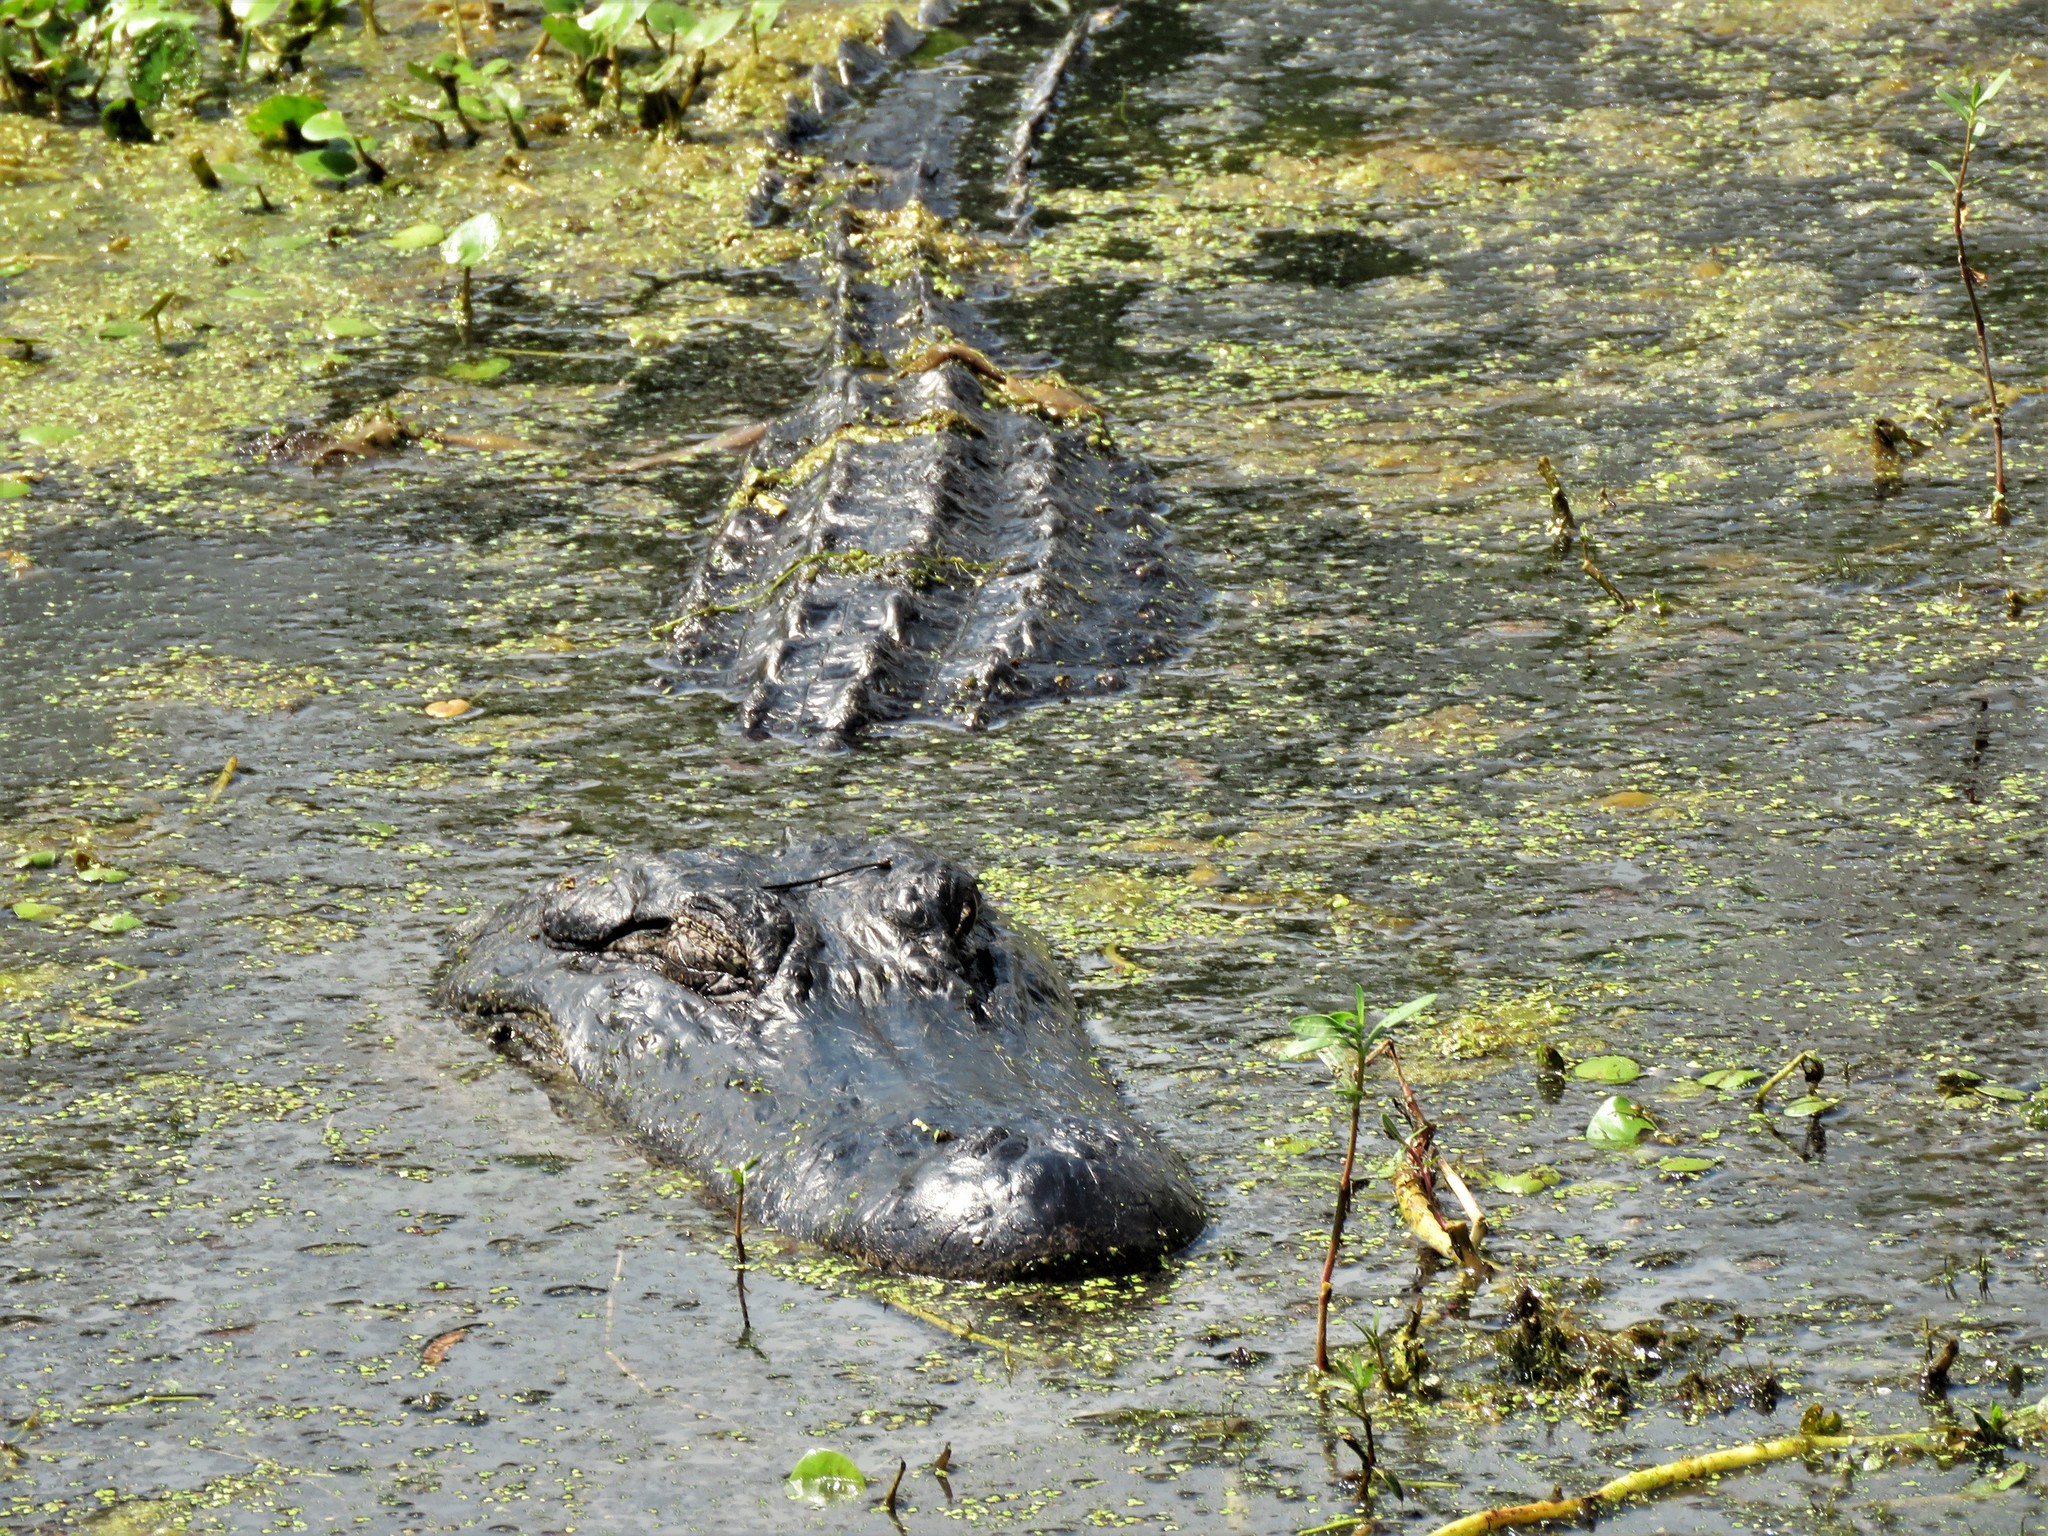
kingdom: Animalia
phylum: Chordata
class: Crocodylia
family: Alligatoridae
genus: Alligator
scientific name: Alligator mississippiensis
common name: American alligator
